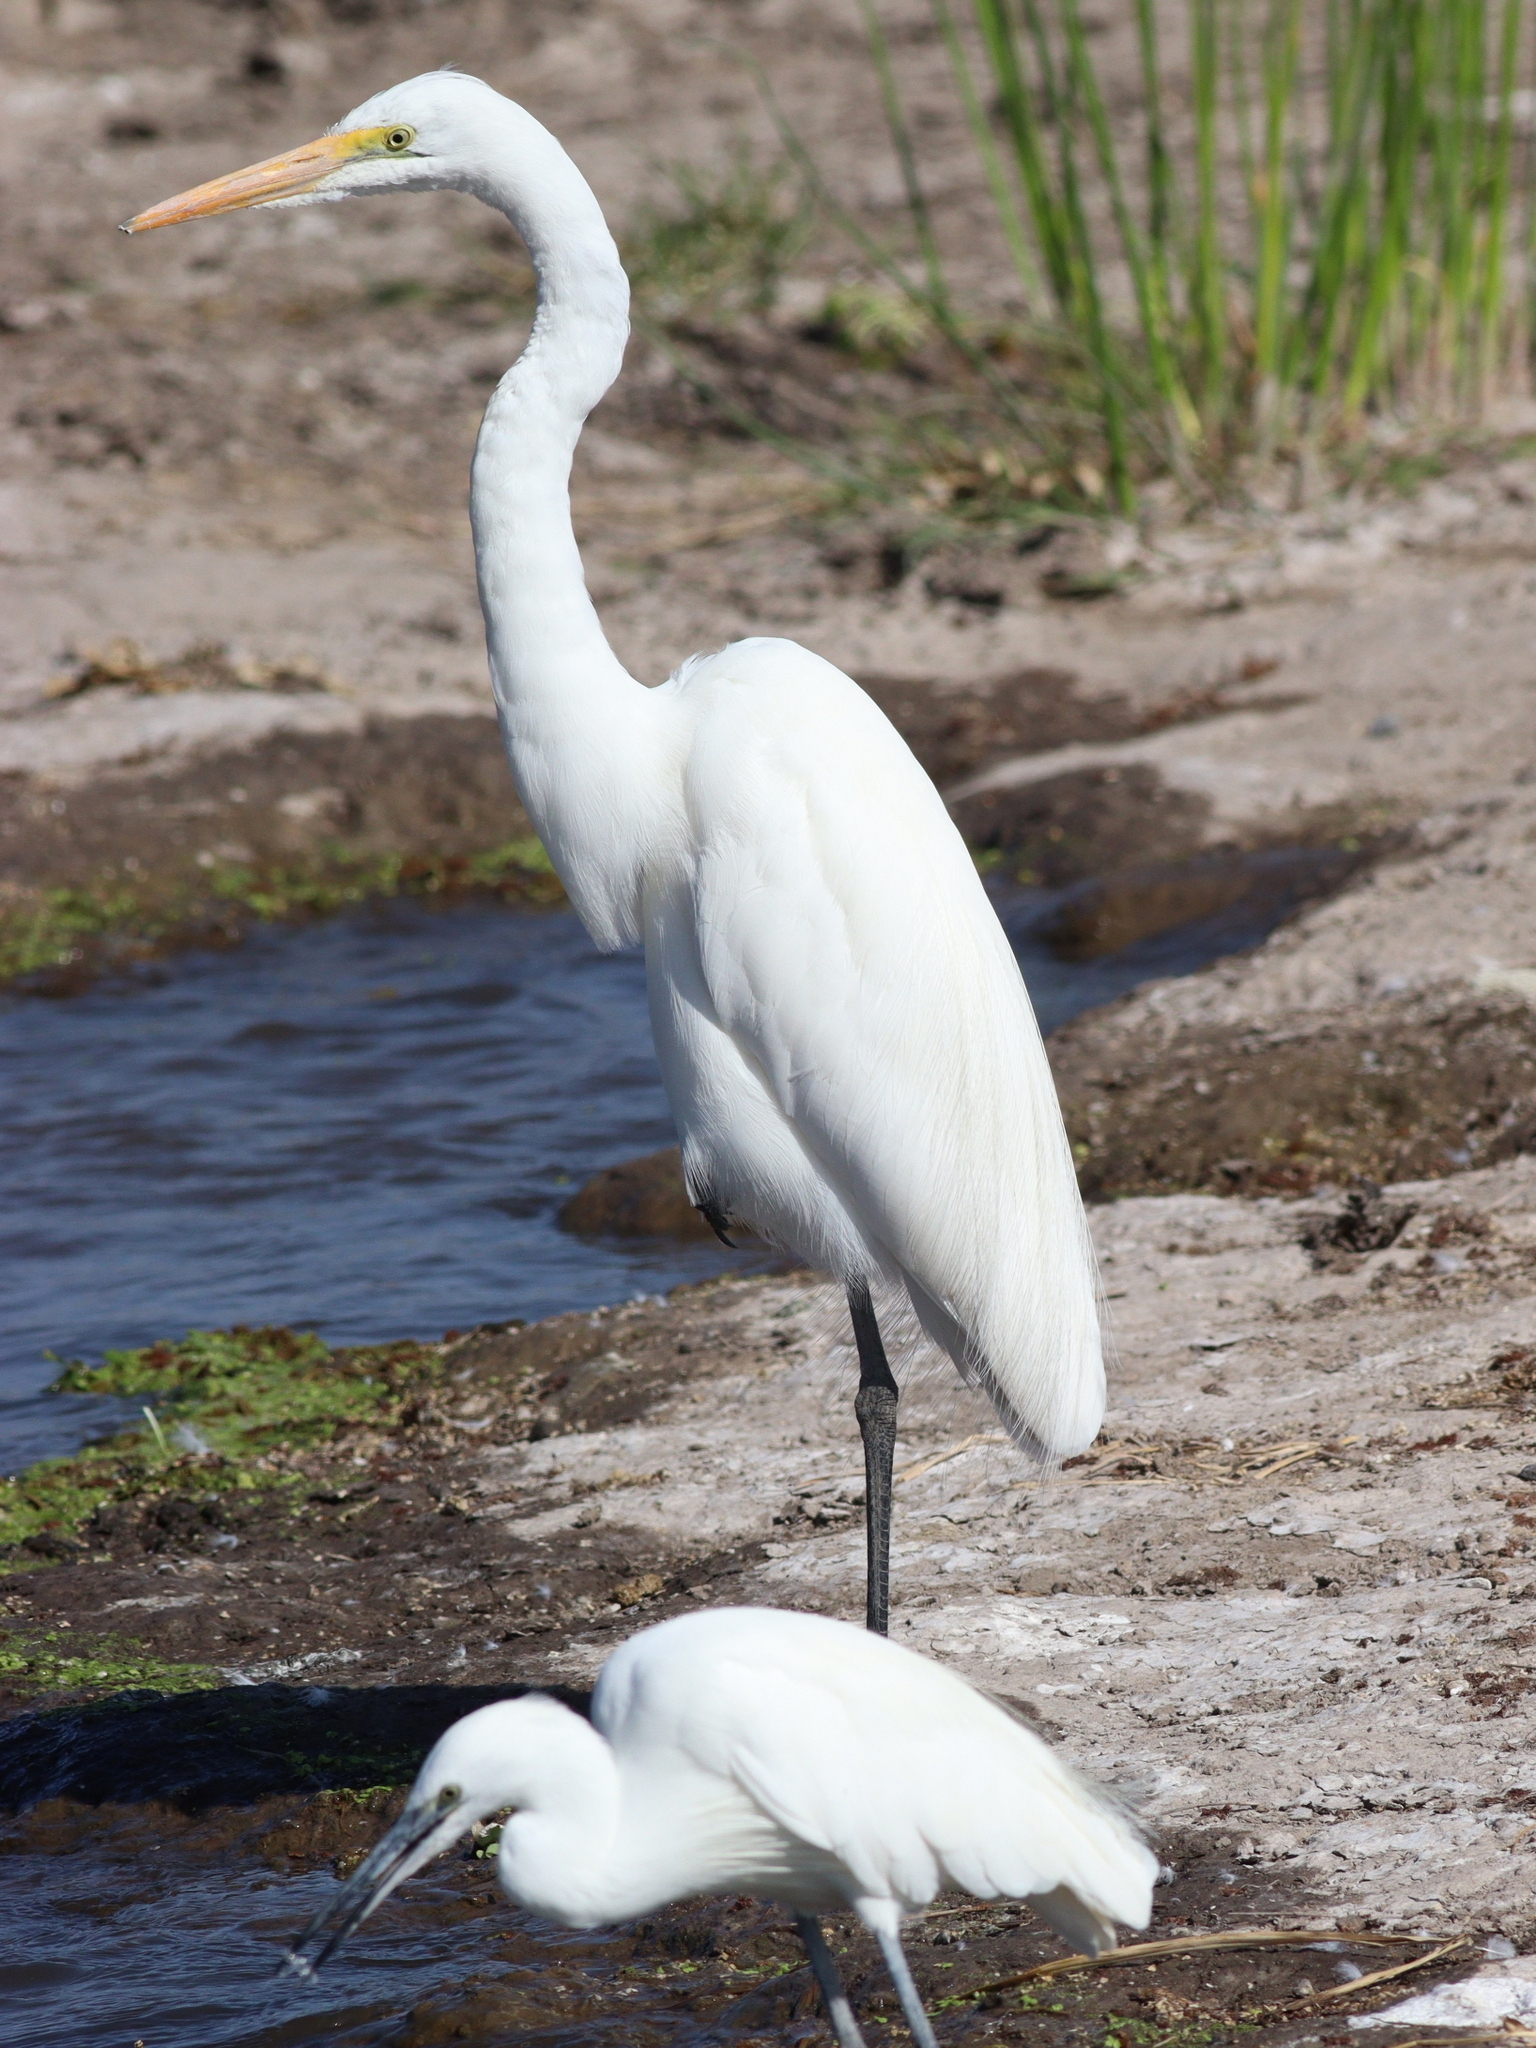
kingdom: Animalia
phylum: Chordata
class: Aves
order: Pelecaniformes
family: Ardeidae
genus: Ardea
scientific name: Ardea alba
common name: Great egret
